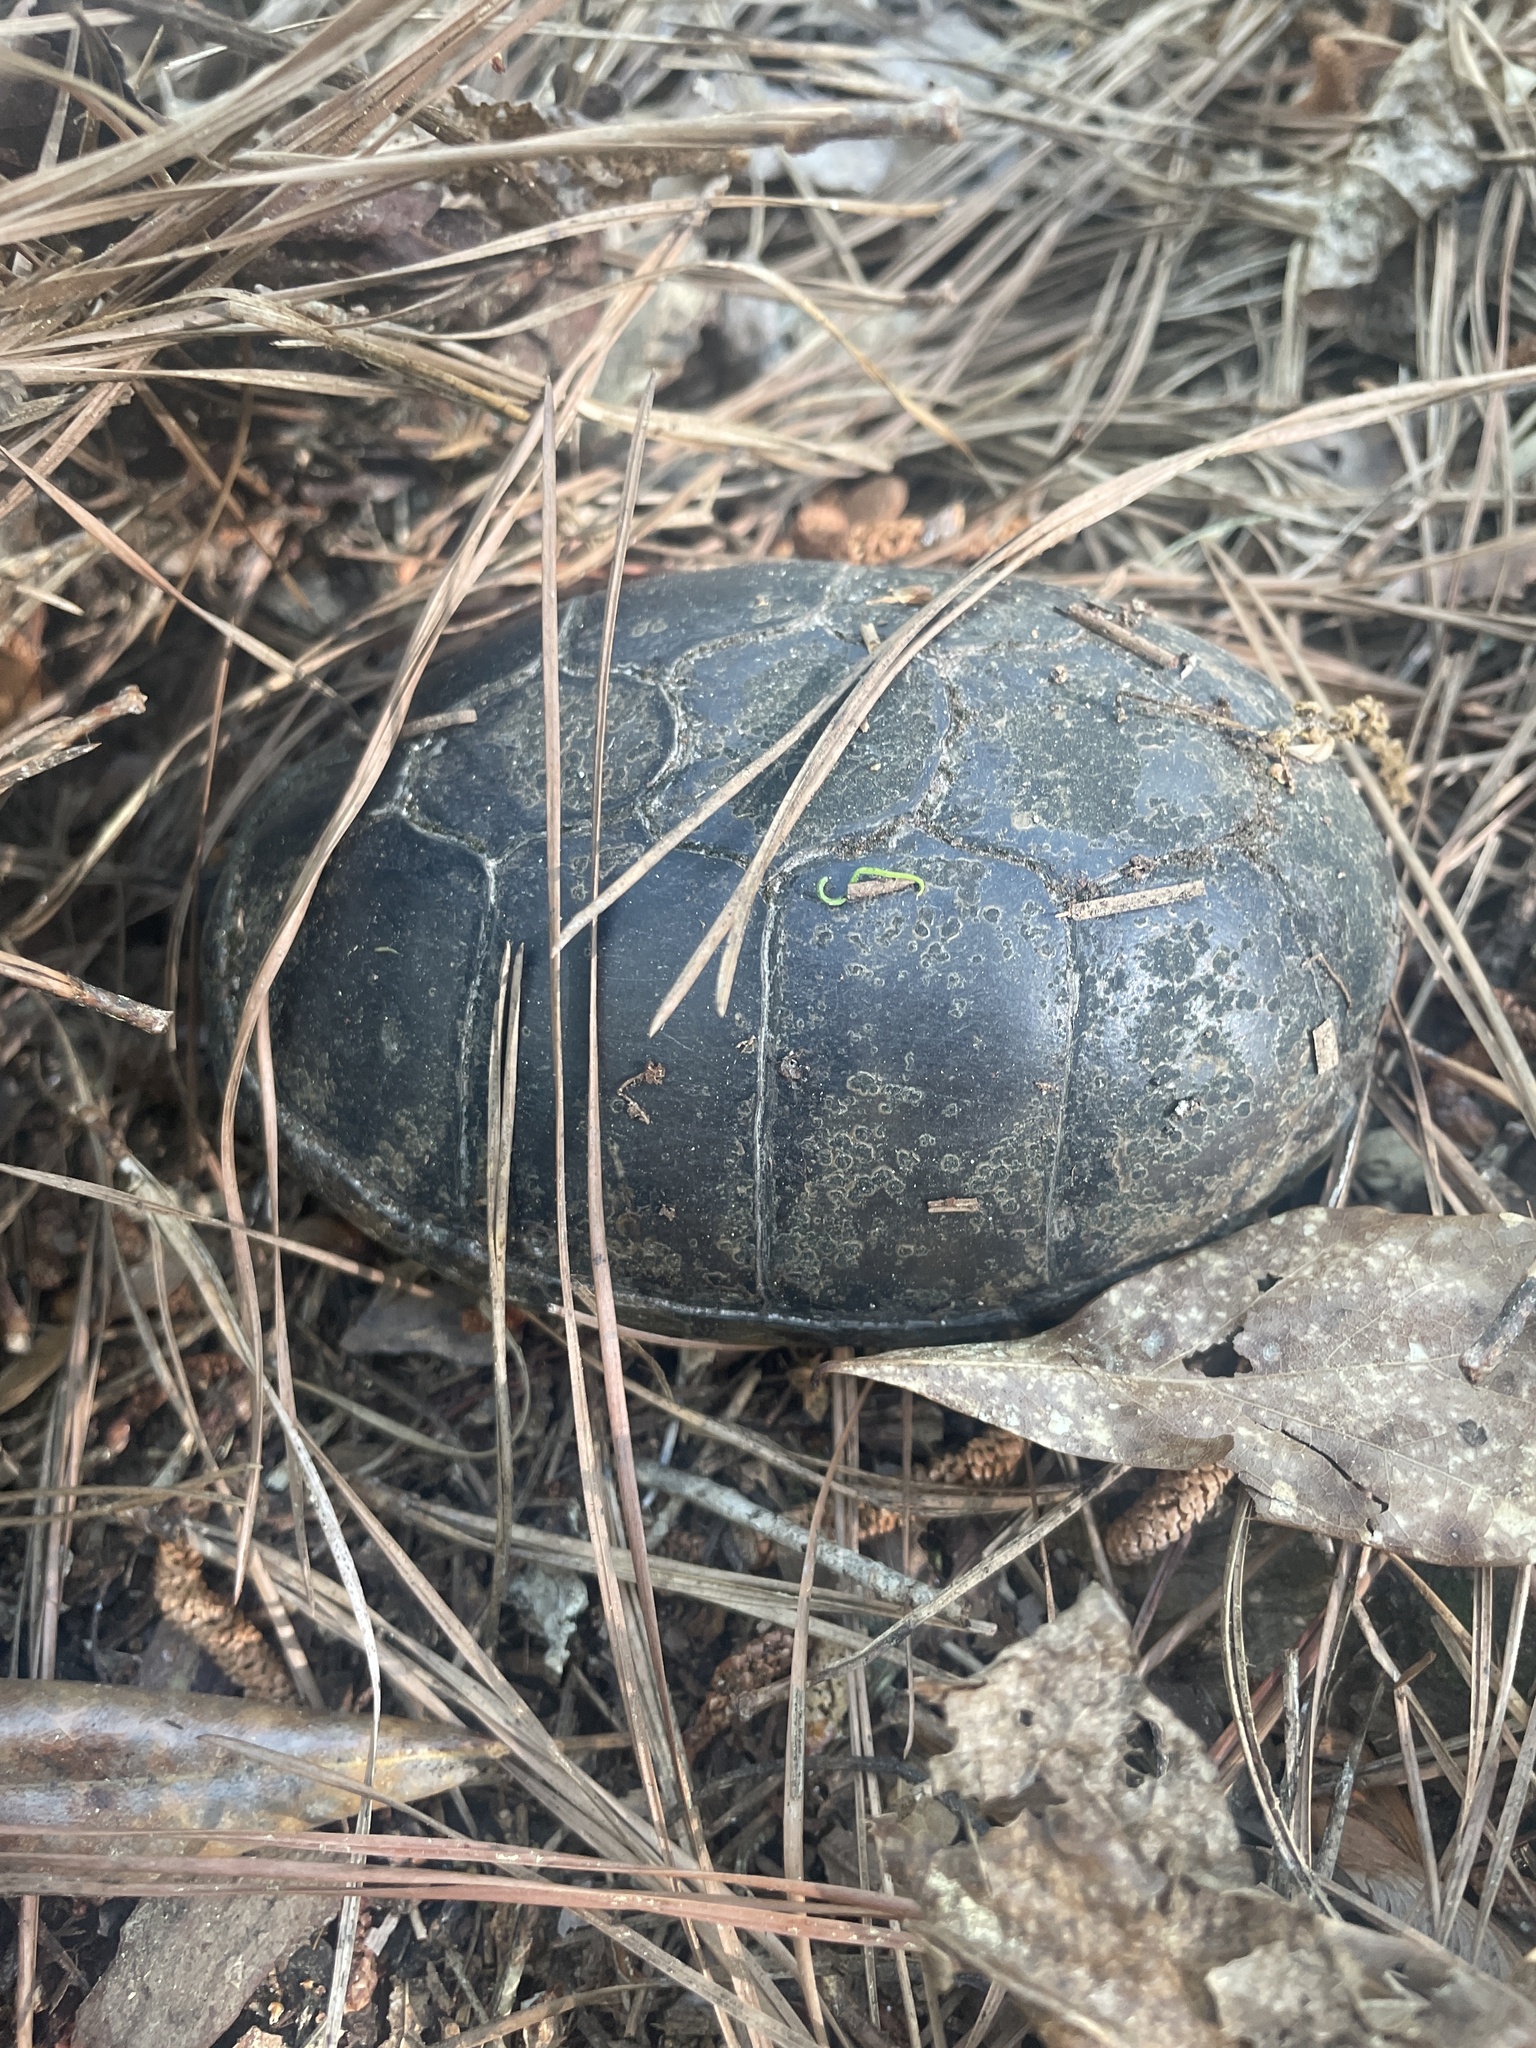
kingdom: Animalia
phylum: Chordata
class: Testudines
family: Kinosternidae
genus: Kinosternon
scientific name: Kinosternon subrubrum
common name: Eastern mud turtle
